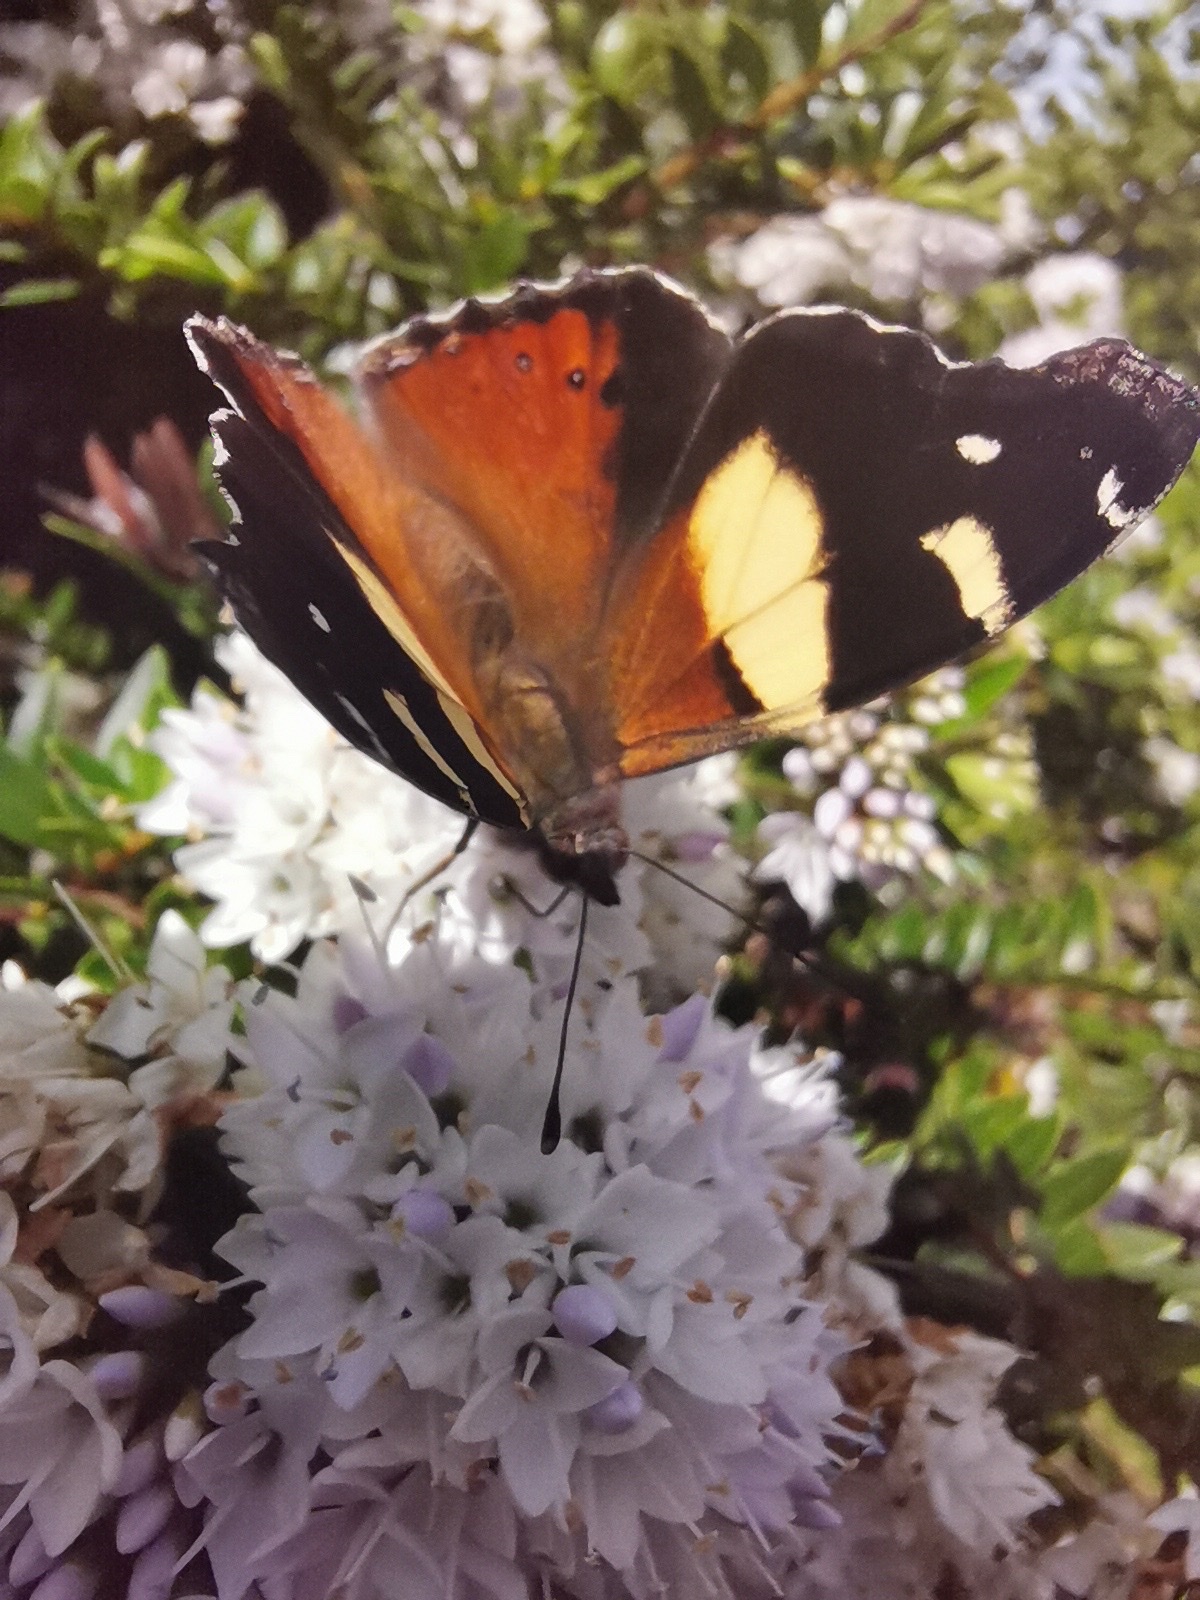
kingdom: Animalia
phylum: Arthropoda
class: Insecta
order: Lepidoptera
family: Nymphalidae
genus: Vanessa
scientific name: Vanessa itea
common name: Yellow admiral
